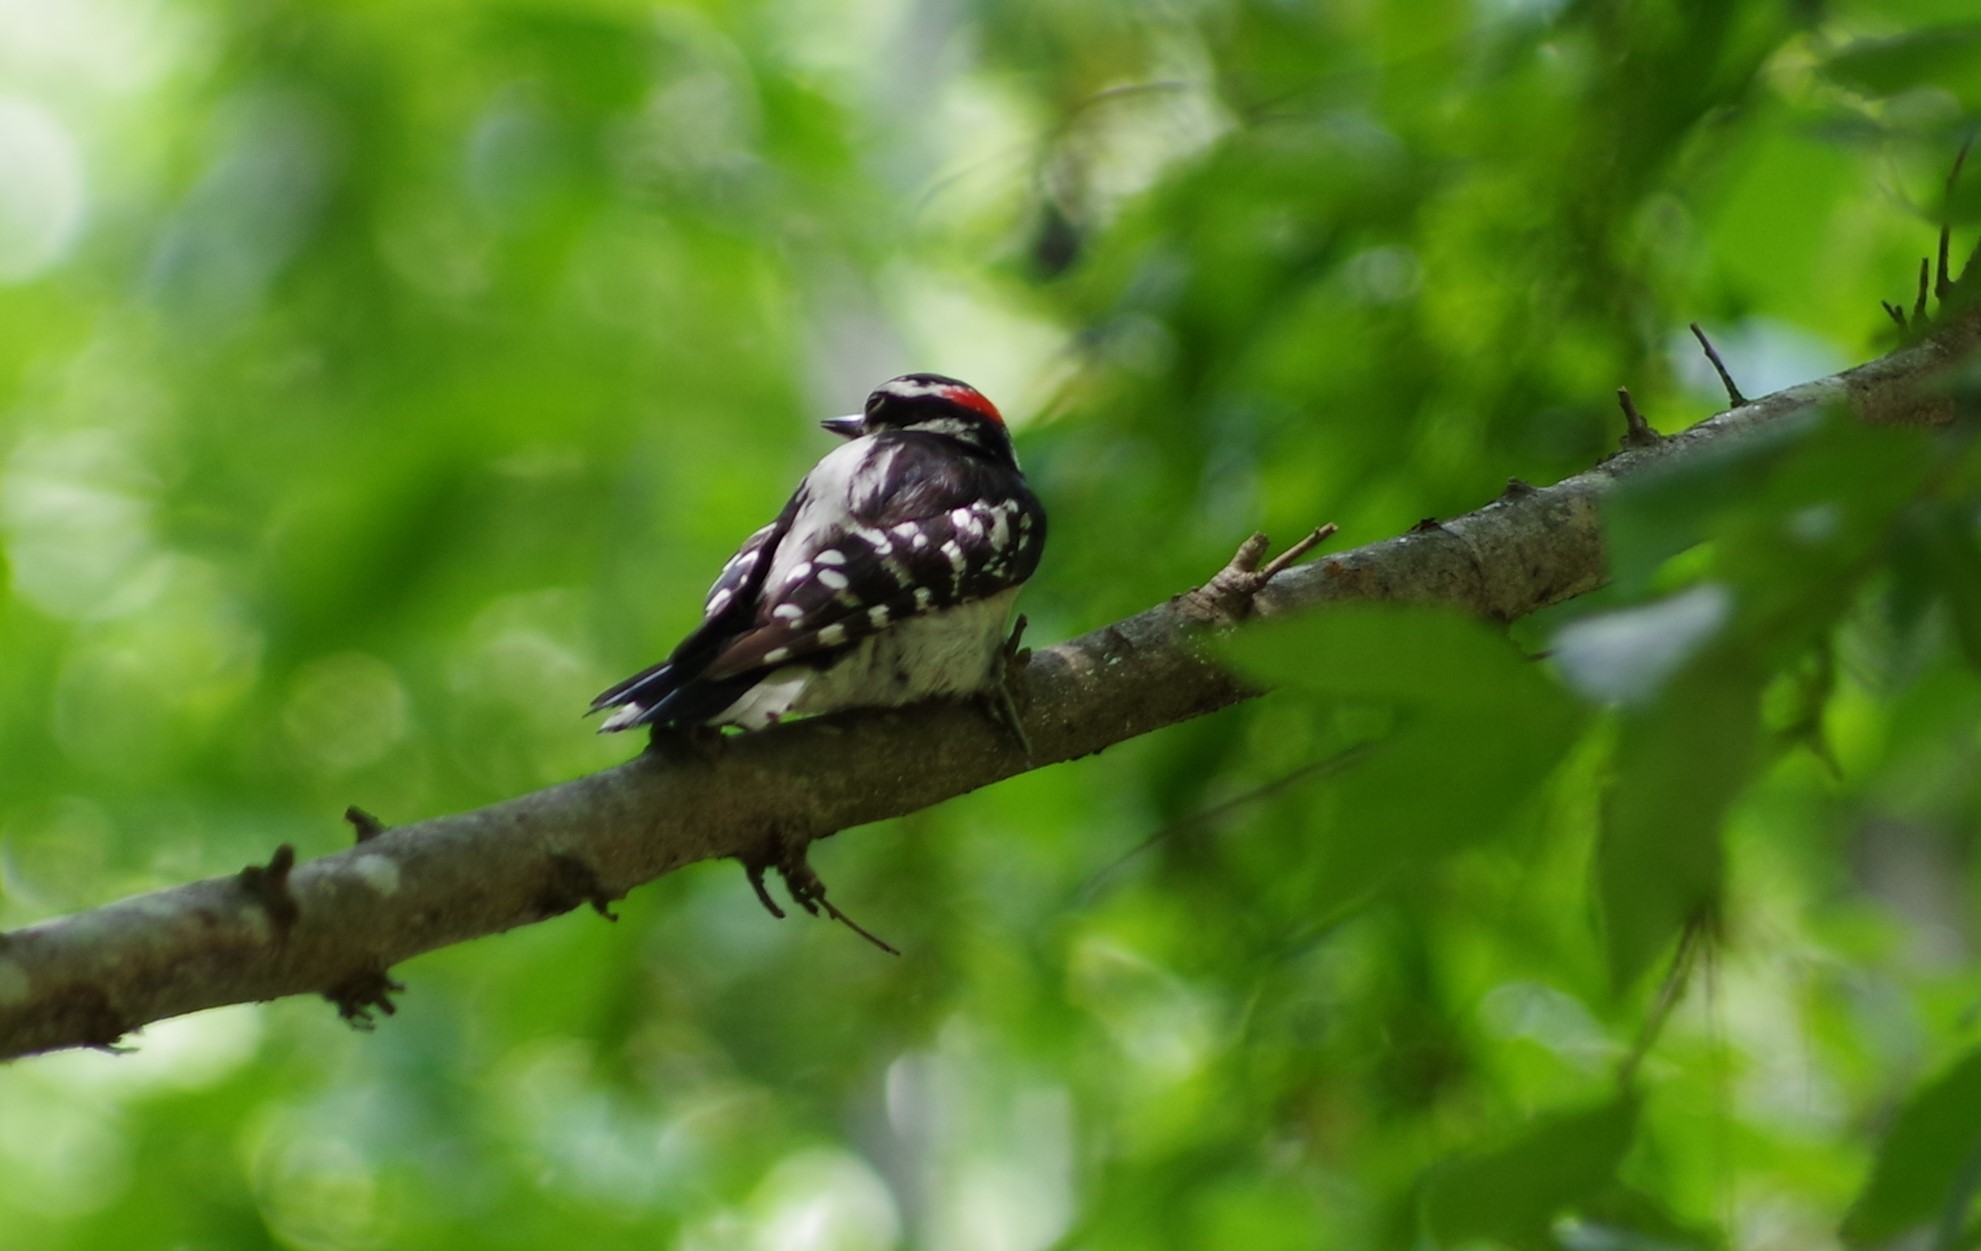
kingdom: Animalia
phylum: Chordata
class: Aves
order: Piciformes
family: Picidae
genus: Dryobates
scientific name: Dryobates pubescens
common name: Downy woodpecker
